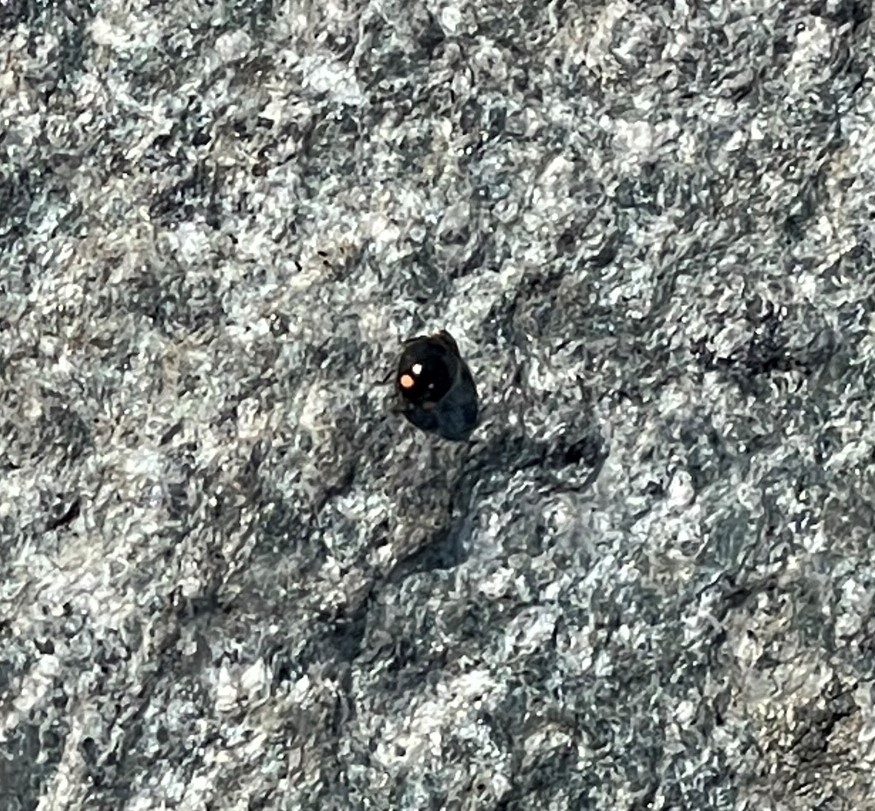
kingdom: Animalia
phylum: Arthropoda
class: Insecta
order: Coleoptera
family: Coccinellidae
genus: Hyperaspis
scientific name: Hyperaspis bigeminata
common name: Bigeminate sigil lady beetle
